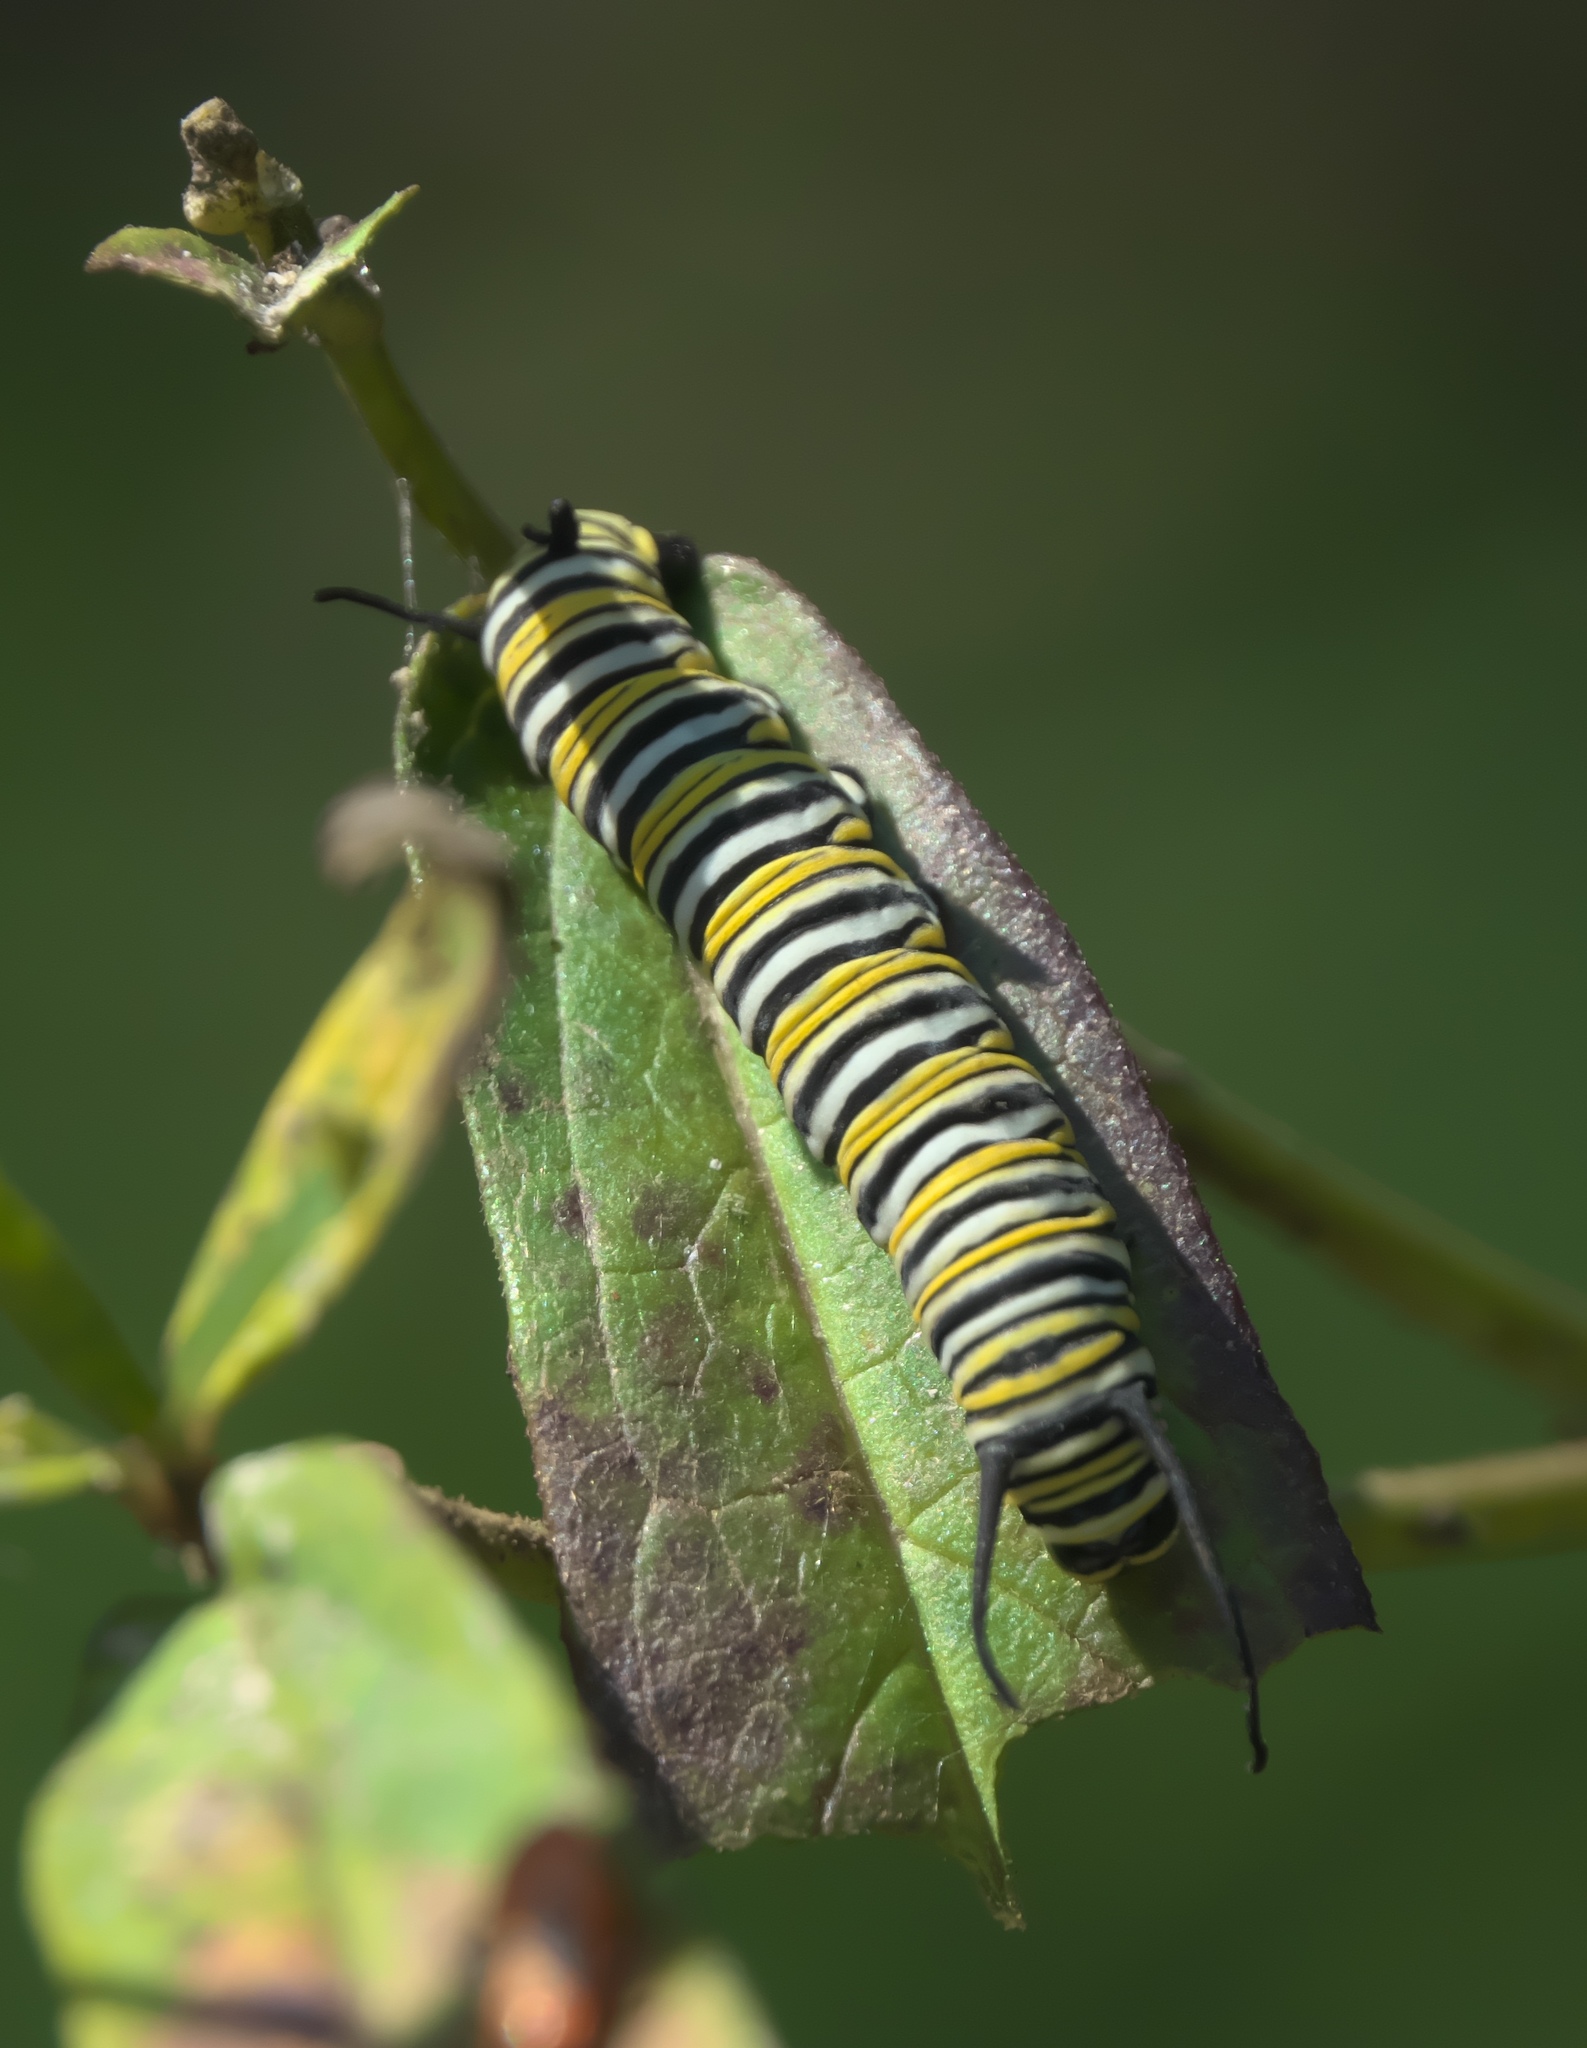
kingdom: Animalia
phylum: Arthropoda
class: Insecta
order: Lepidoptera
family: Nymphalidae
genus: Danaus
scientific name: Danaus plexippus
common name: Monarch
